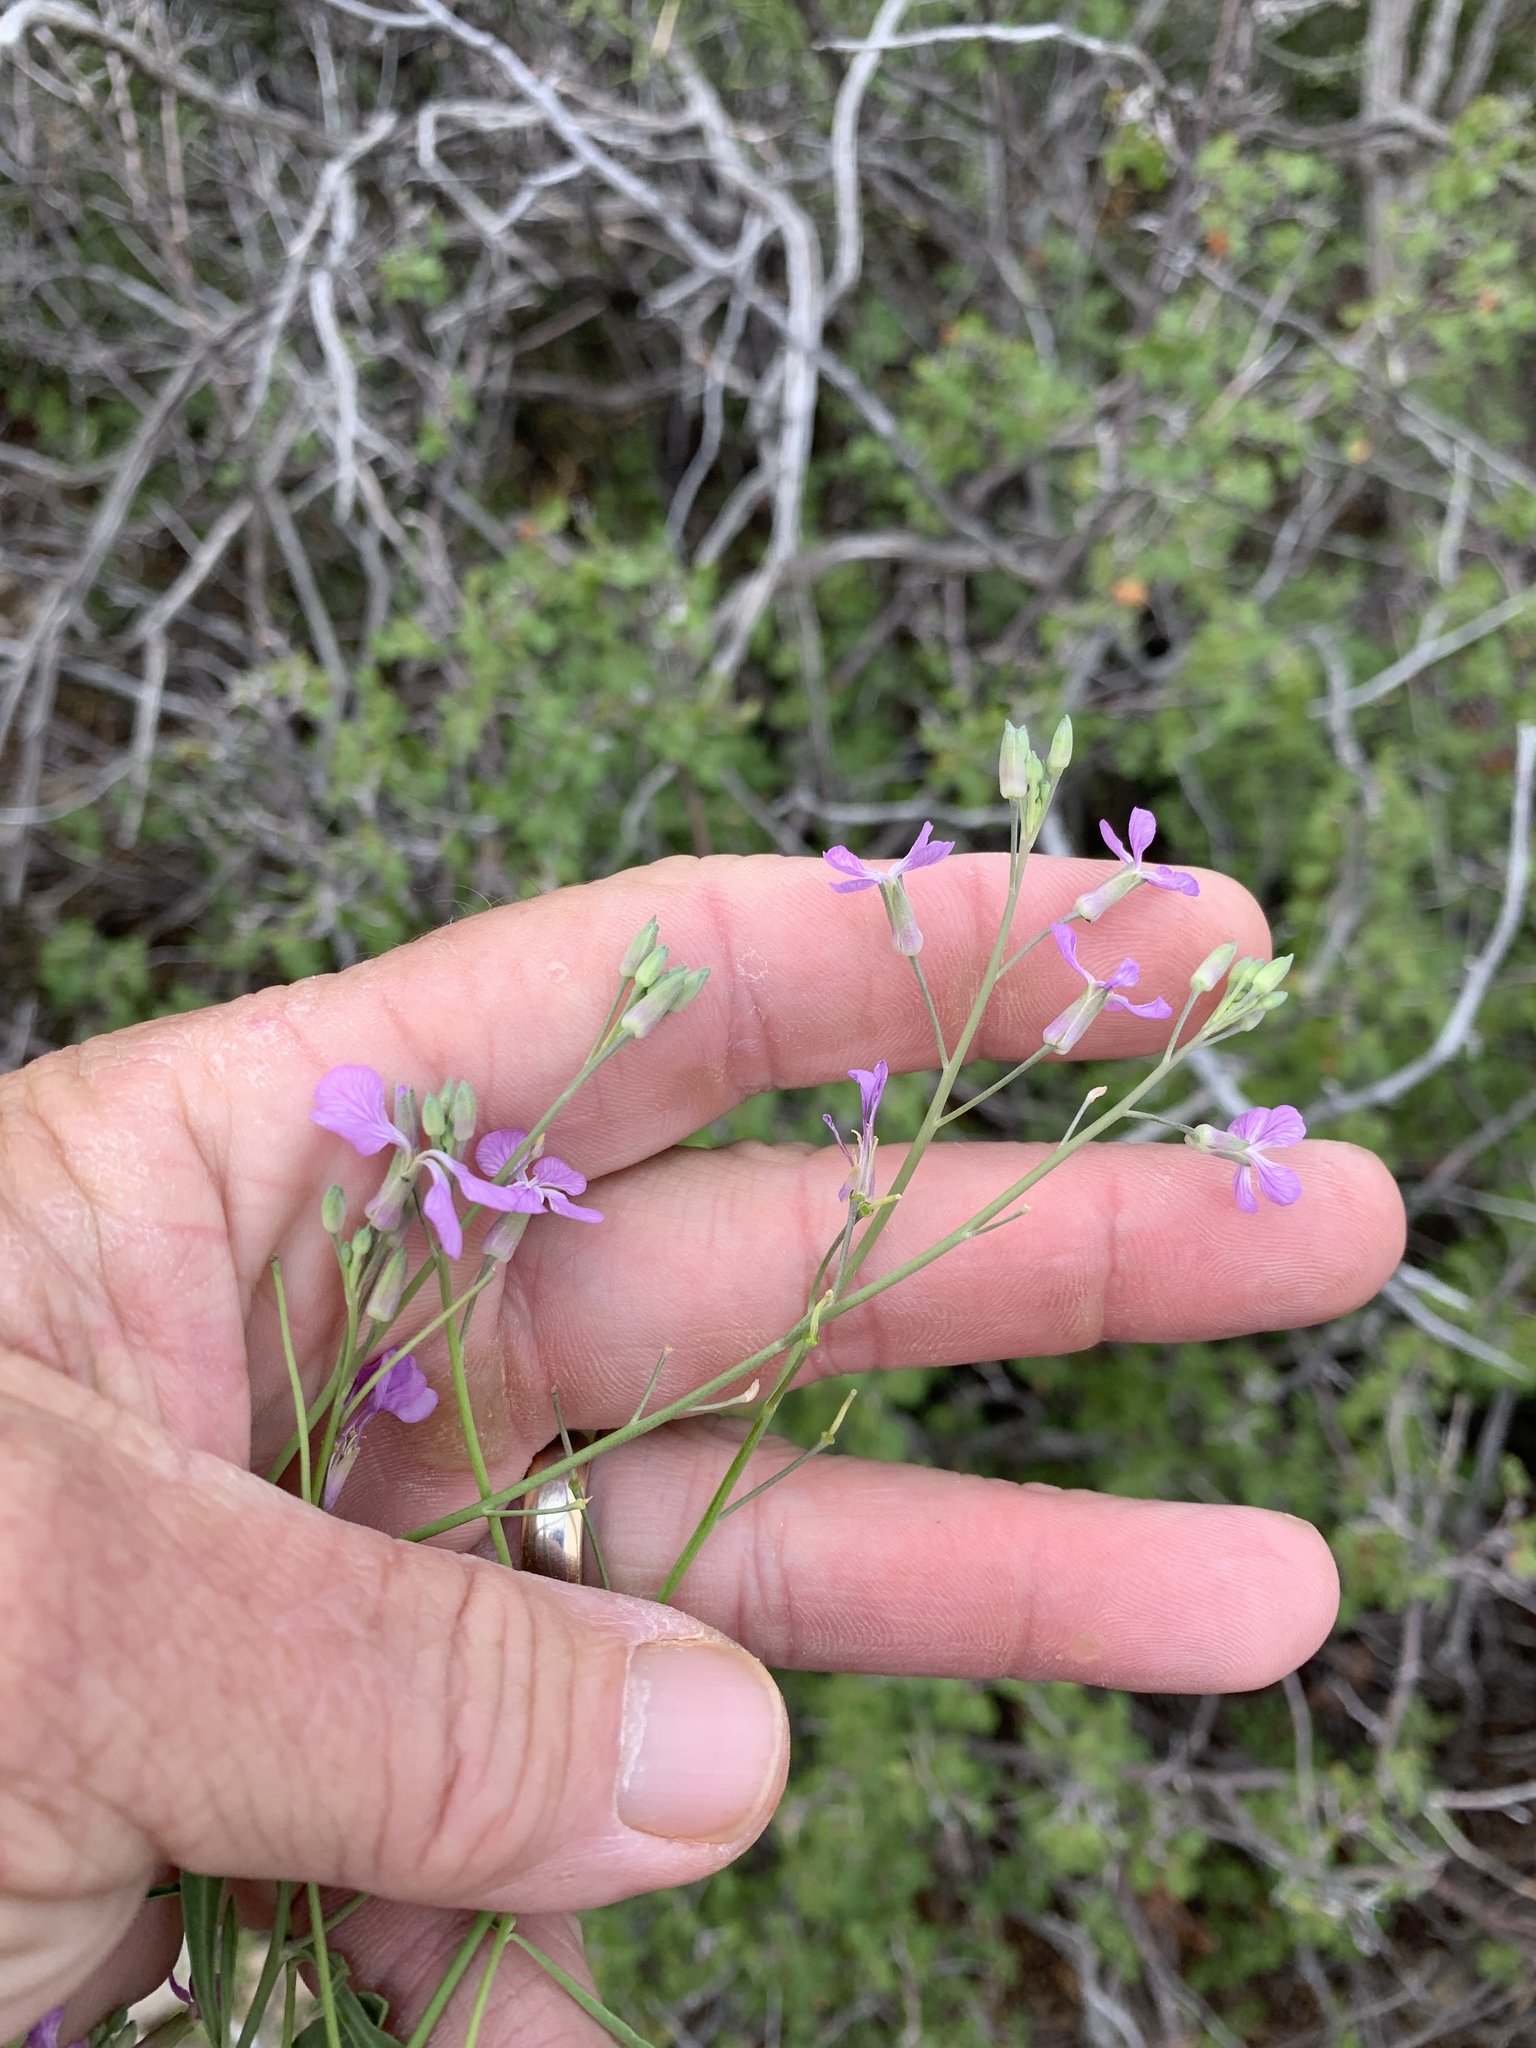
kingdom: Plantae
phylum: Tracheophyta
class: Magnoliopsida
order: Brassicales
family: Brassicaceae
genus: Hesperidanthus
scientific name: Hesperidanthus linearifolius
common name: Slim-leaf plains mustard
